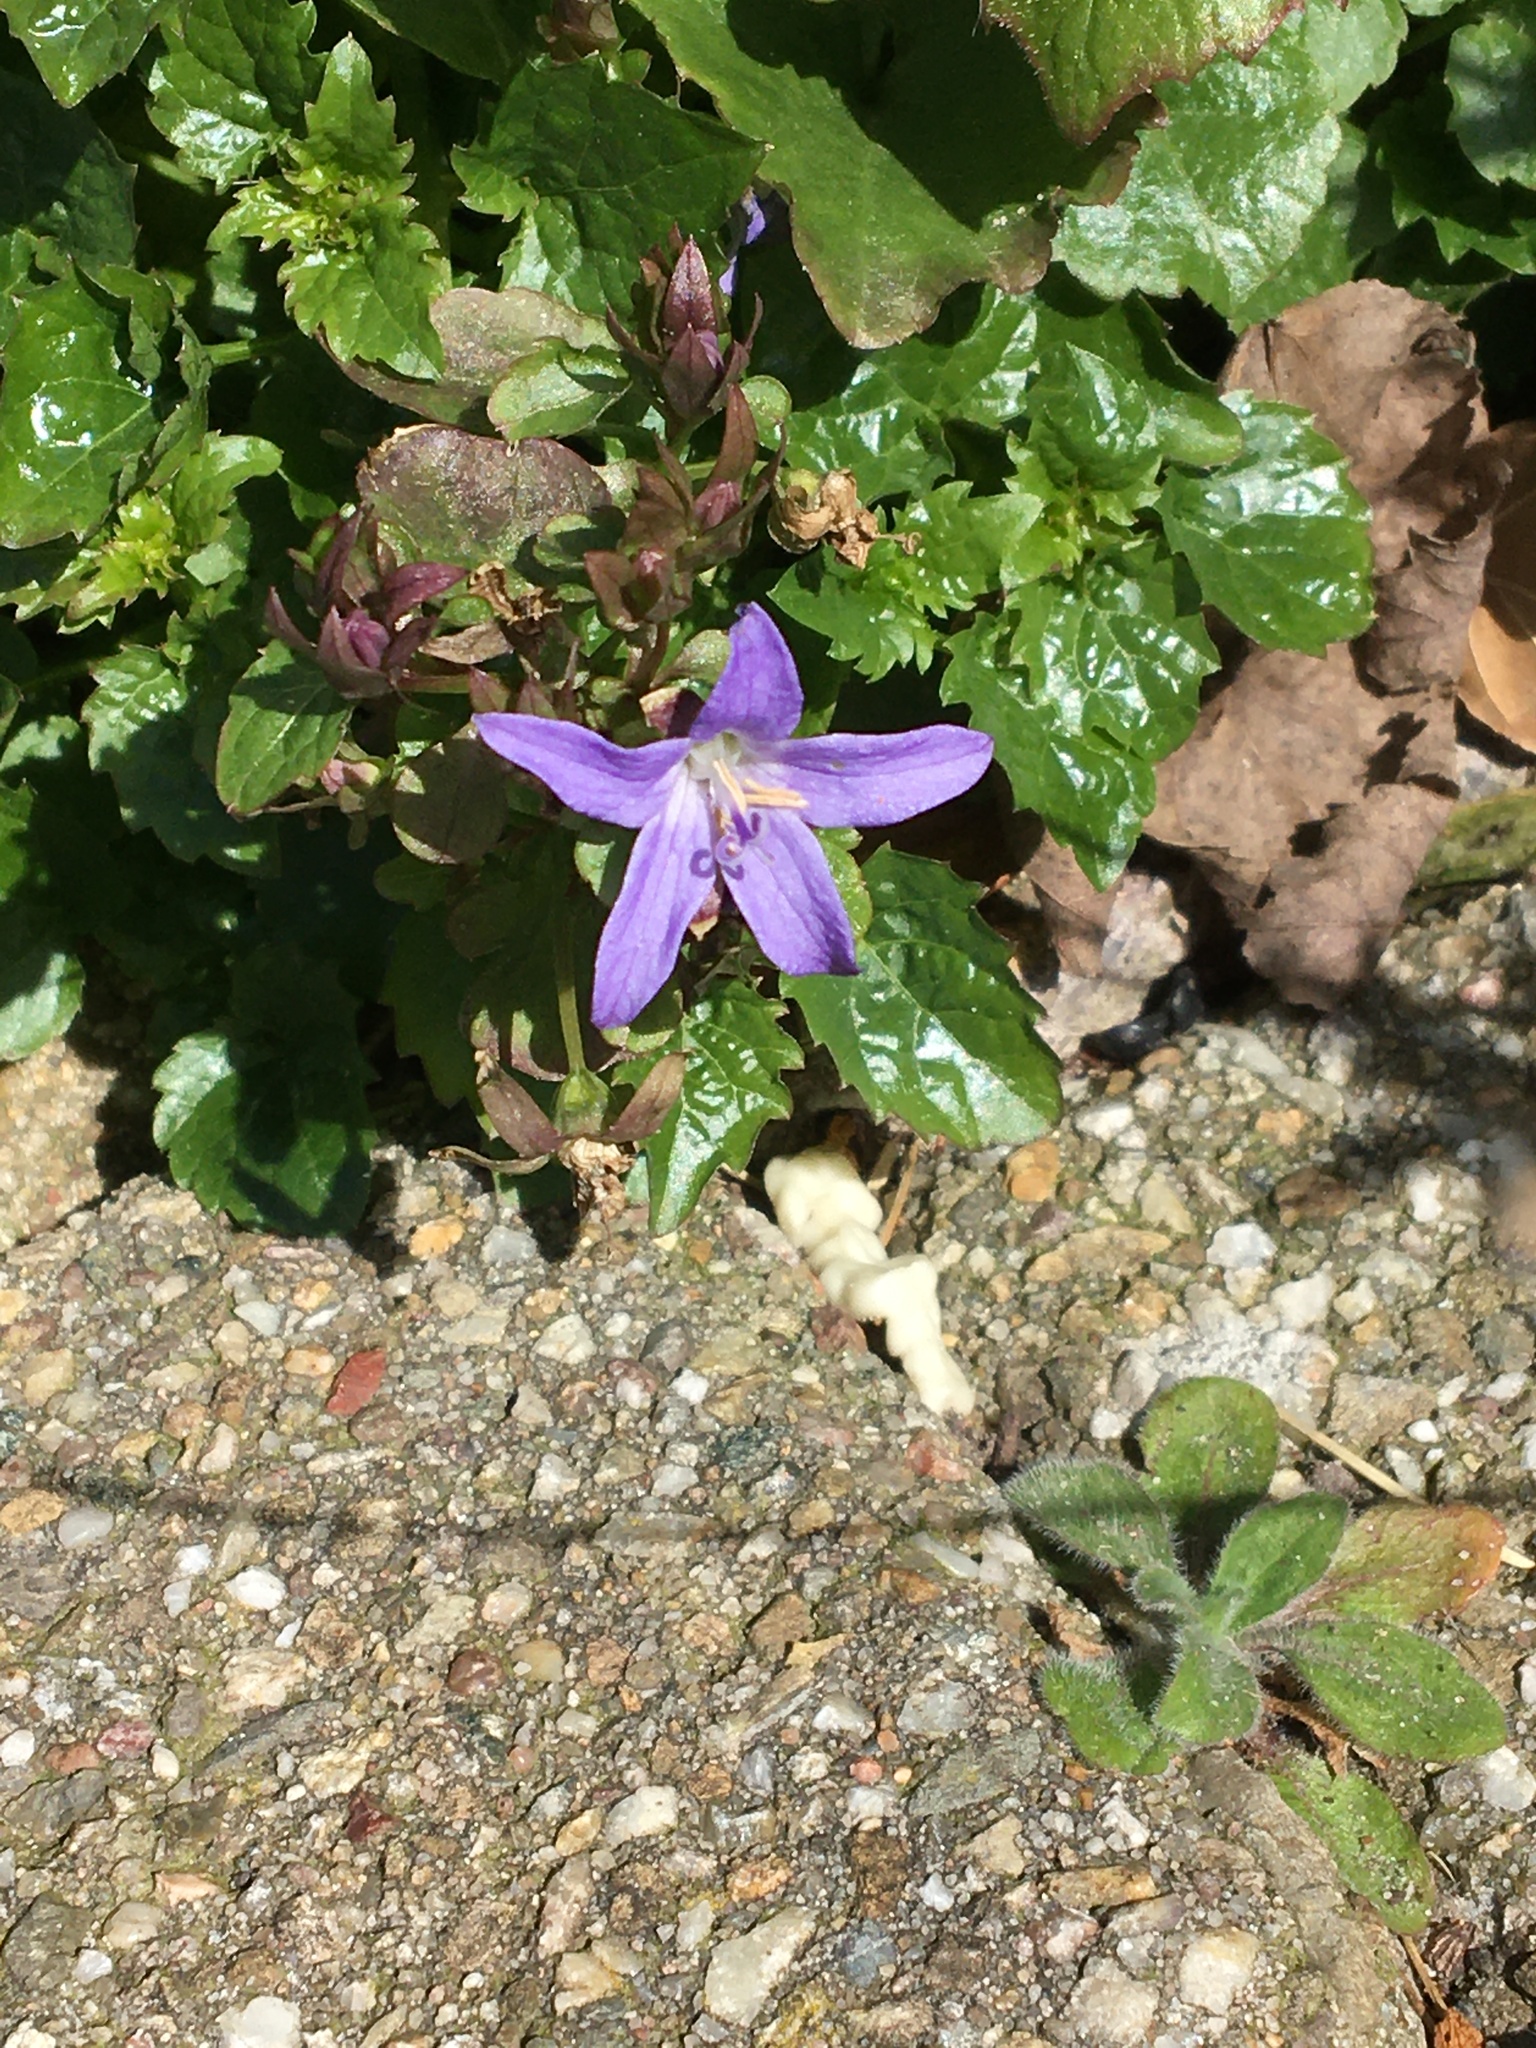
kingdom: Plantae
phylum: Tracheophyta
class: Magnoliopsida
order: Asterales
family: Campanulaceae
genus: Campanula
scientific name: Campanula poscharskyana
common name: Trailing bellflower
